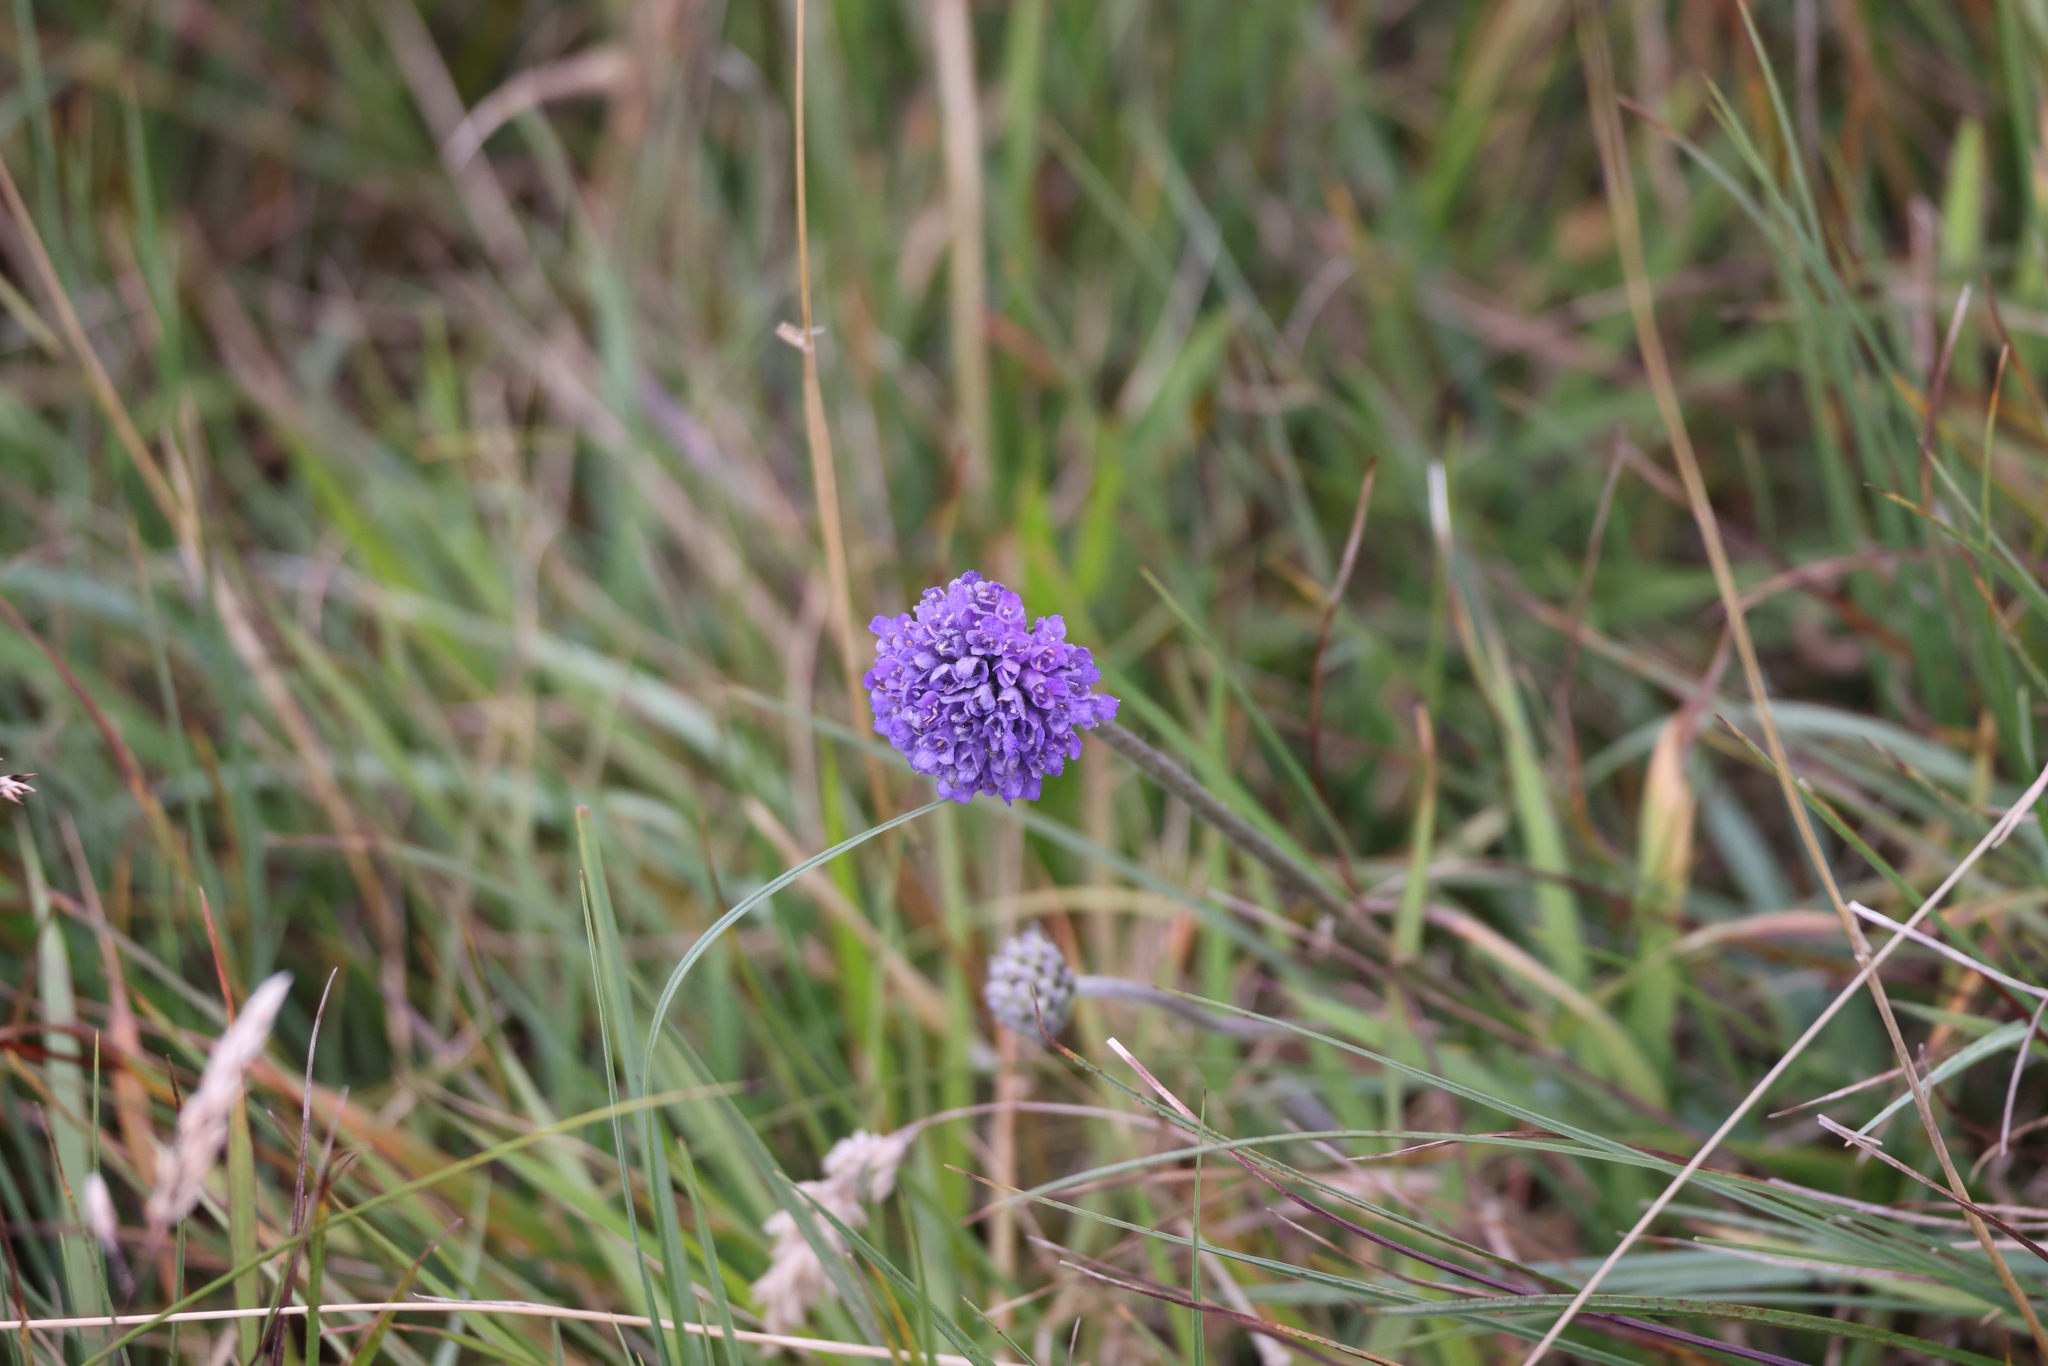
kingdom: Plantae
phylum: Tracheophyta
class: Magnoliopsida
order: Dipsacales
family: Caprifoliaceae
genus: Succisa
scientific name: Succisa pratensis
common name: Devil's-bit
